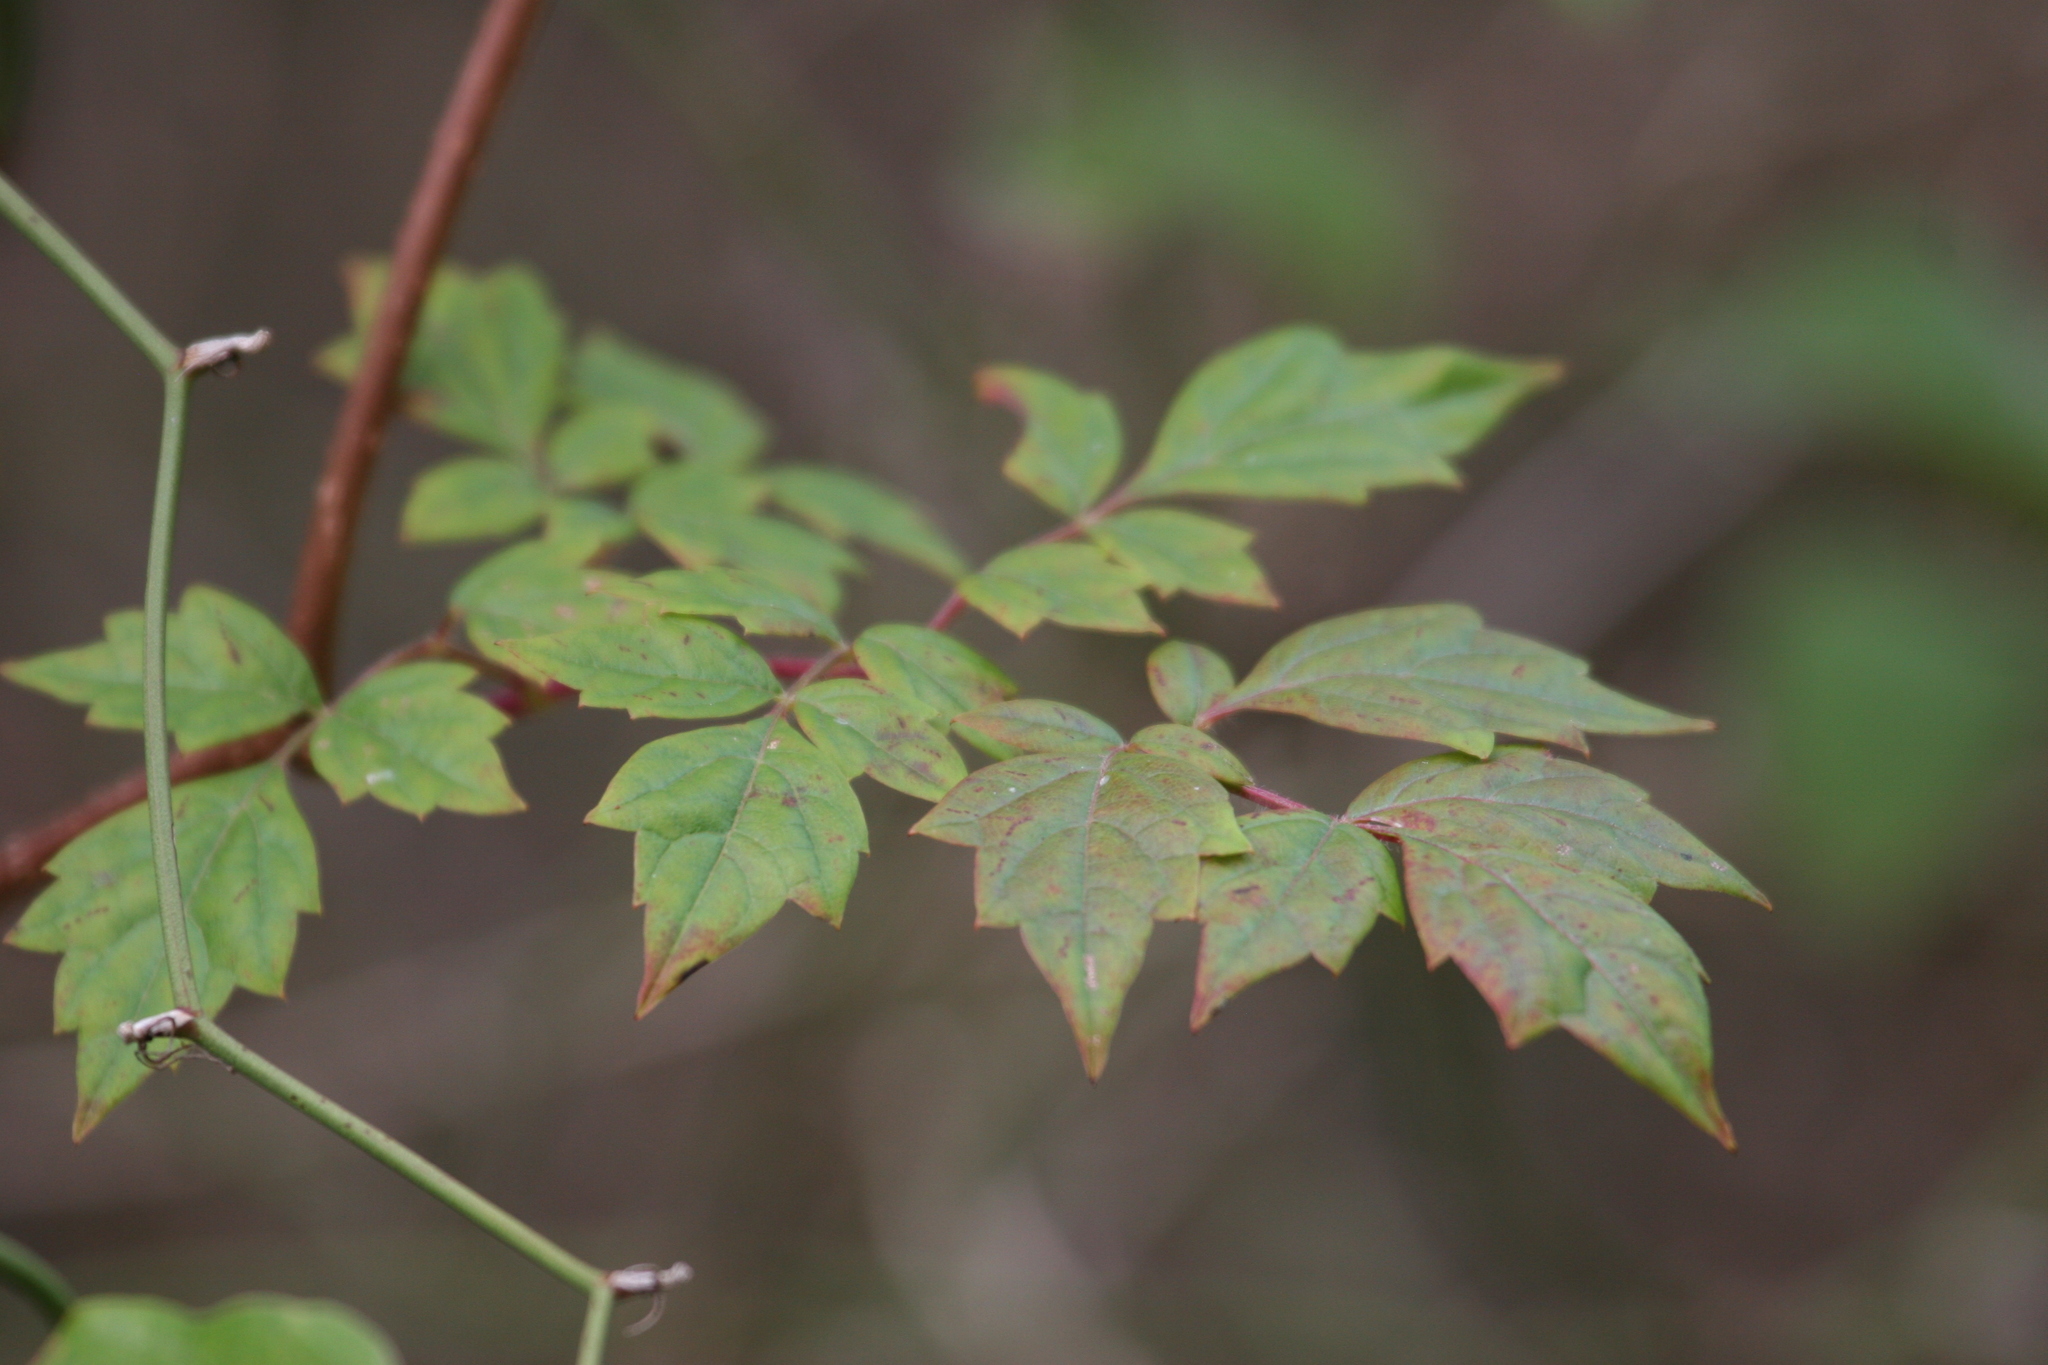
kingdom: Plantae
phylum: Tracheophyta
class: Magnoliopsida
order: Vitales
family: Vitaceae
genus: Nekemias
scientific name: Nekemias arborea
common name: Peppervine
